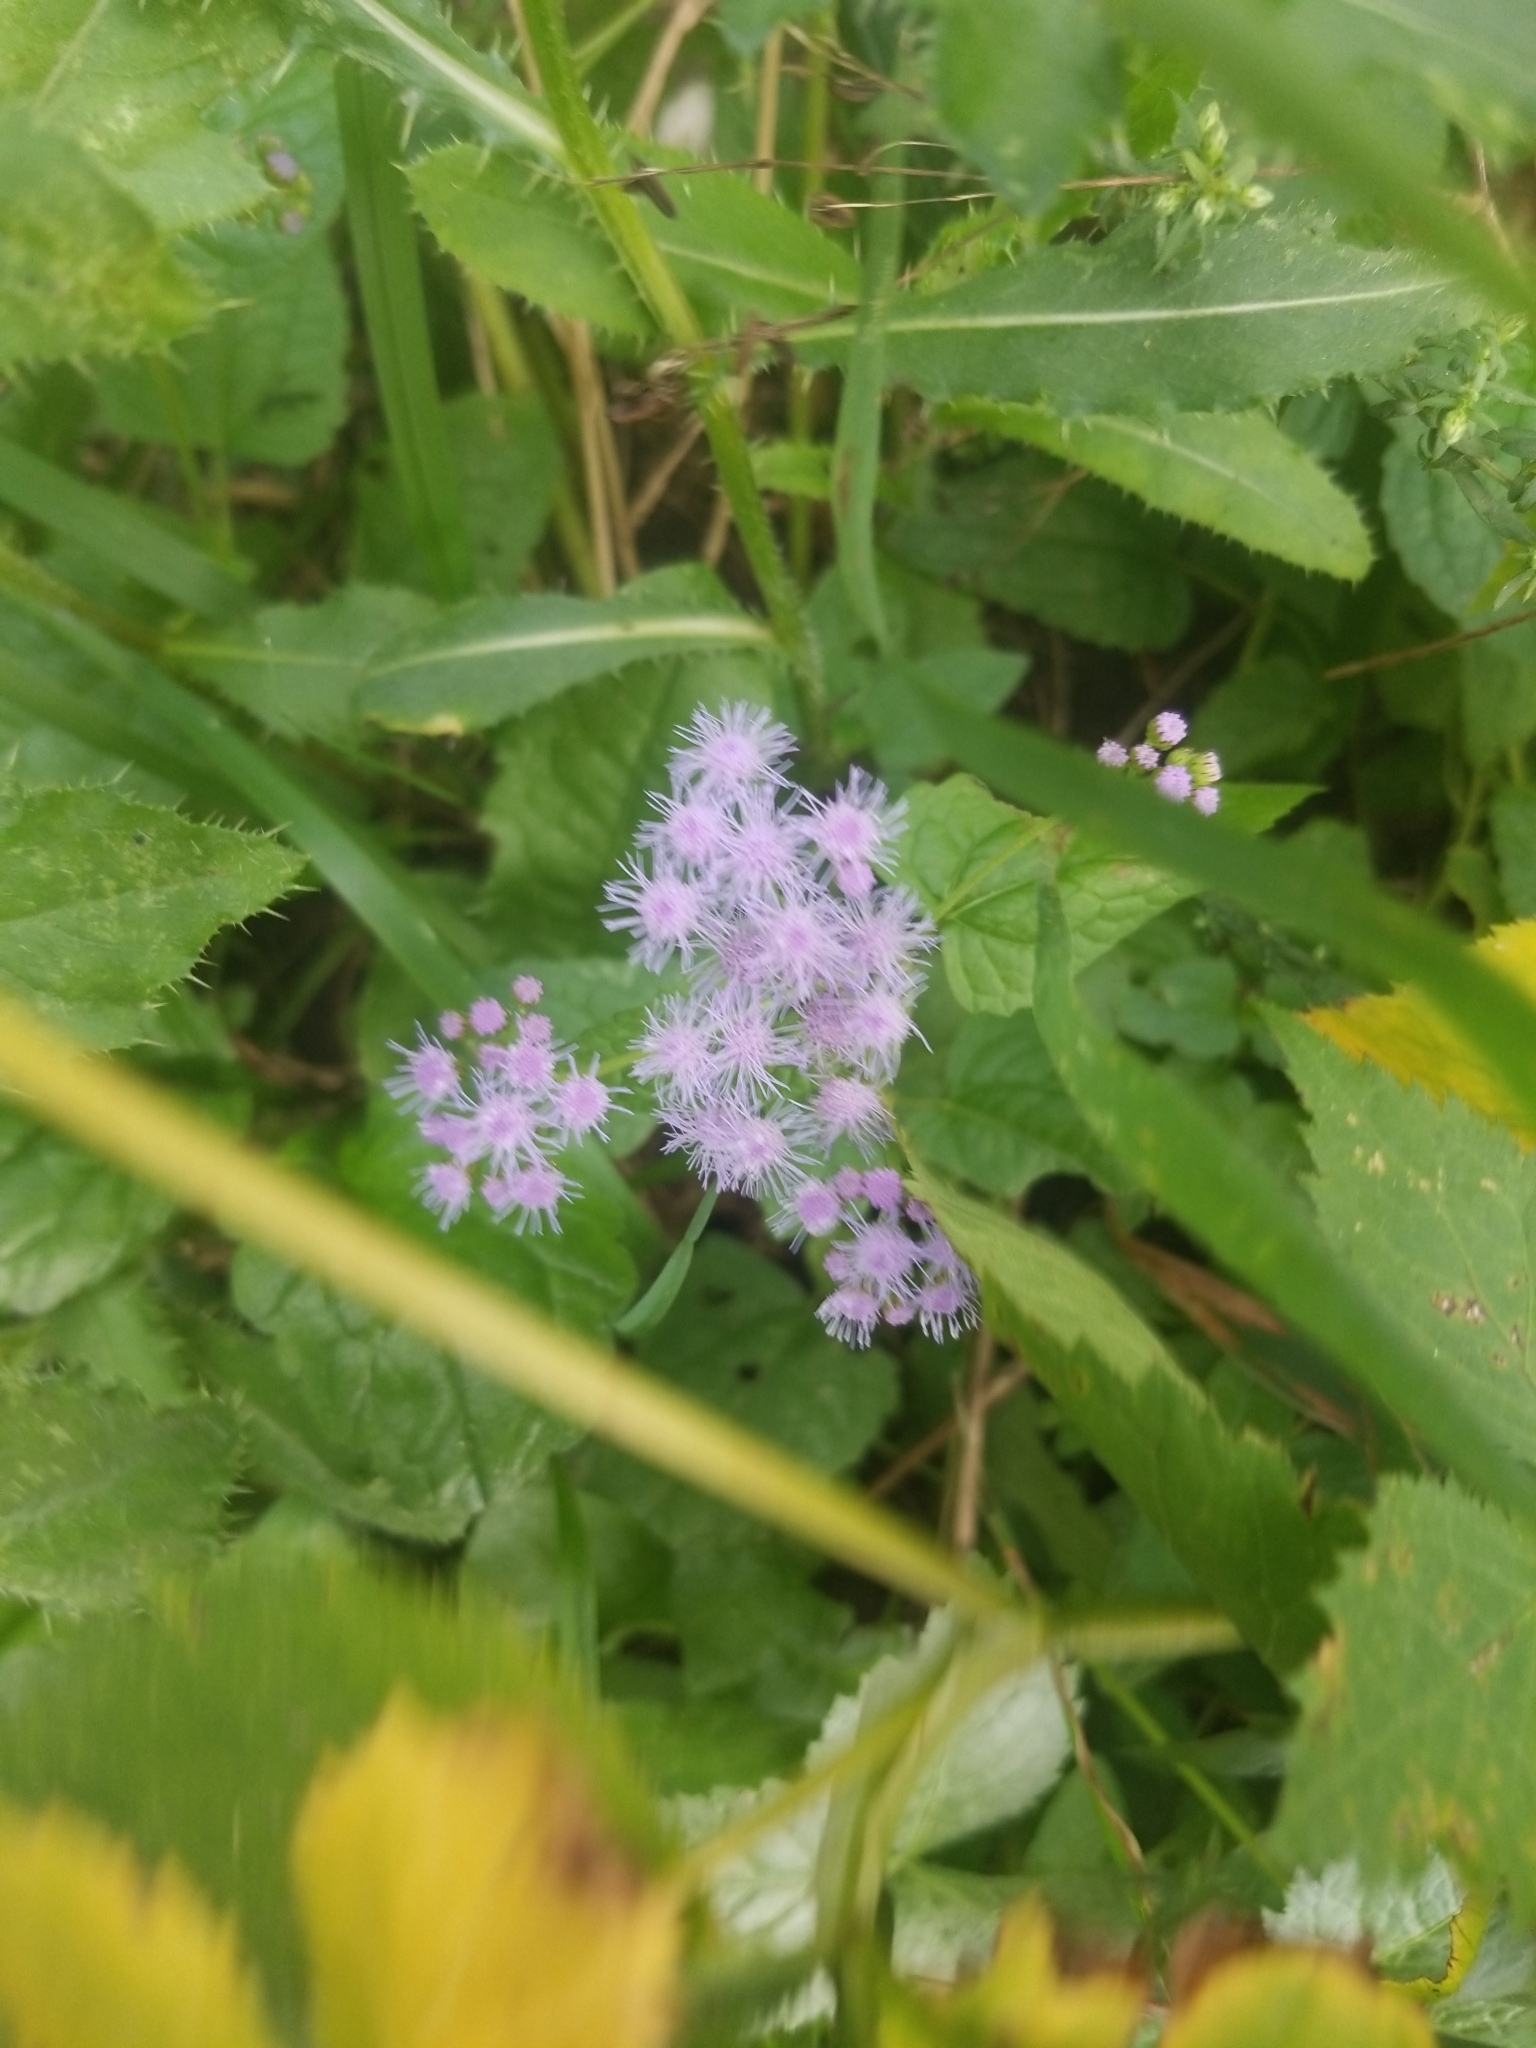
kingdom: Plantae
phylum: Tracheophyta
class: Magnoliopsida
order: Asterales
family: Asteraceae
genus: Conoclinium
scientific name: Conoclinium coelestinum
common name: Blue mistflower
